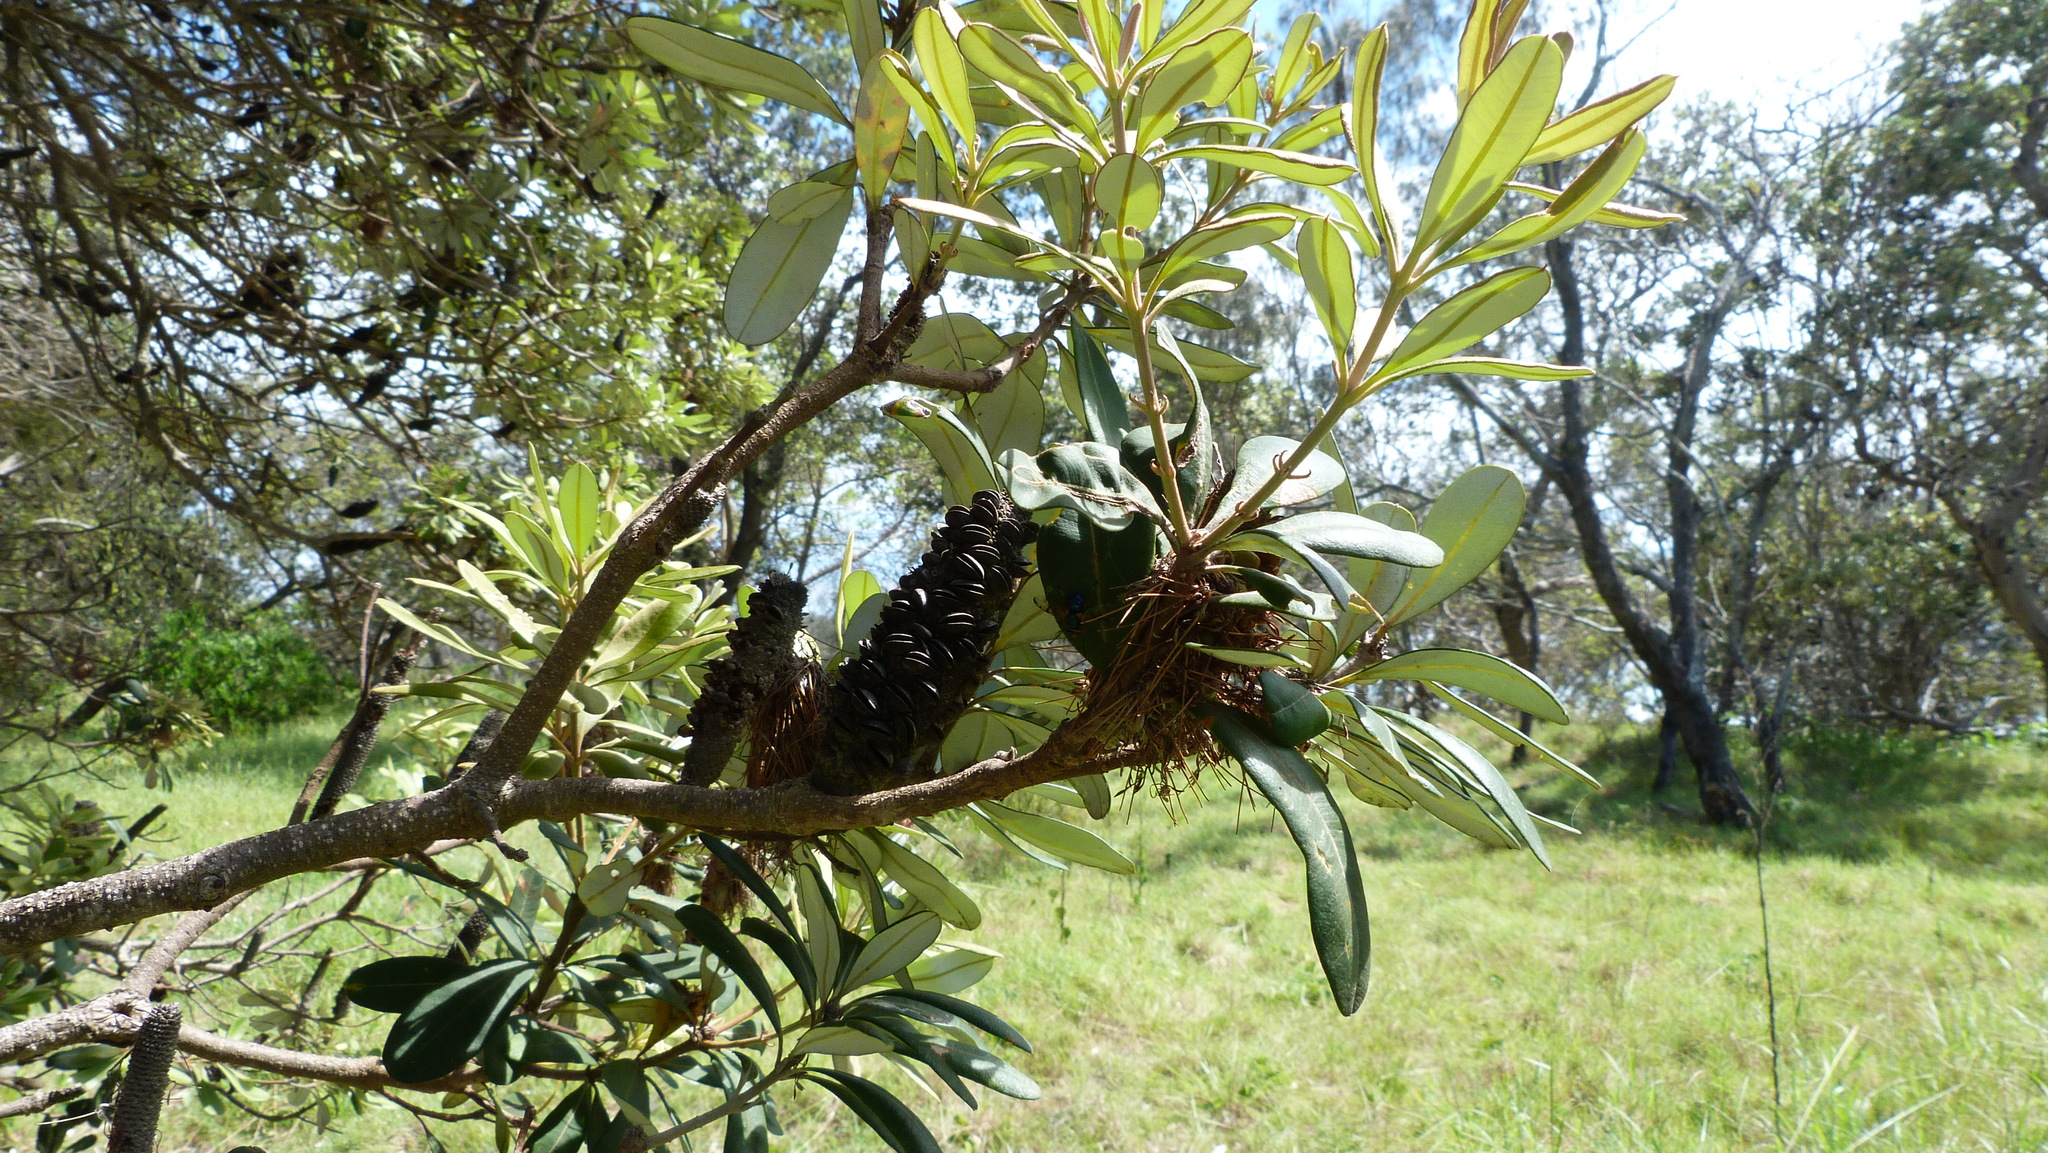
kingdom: Plantae
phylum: Tracheophyta
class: Magnoliopsida
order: Proteales
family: Proteaceae
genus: Banksia
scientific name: Banksia integrifolia
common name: White-honeysuckle
